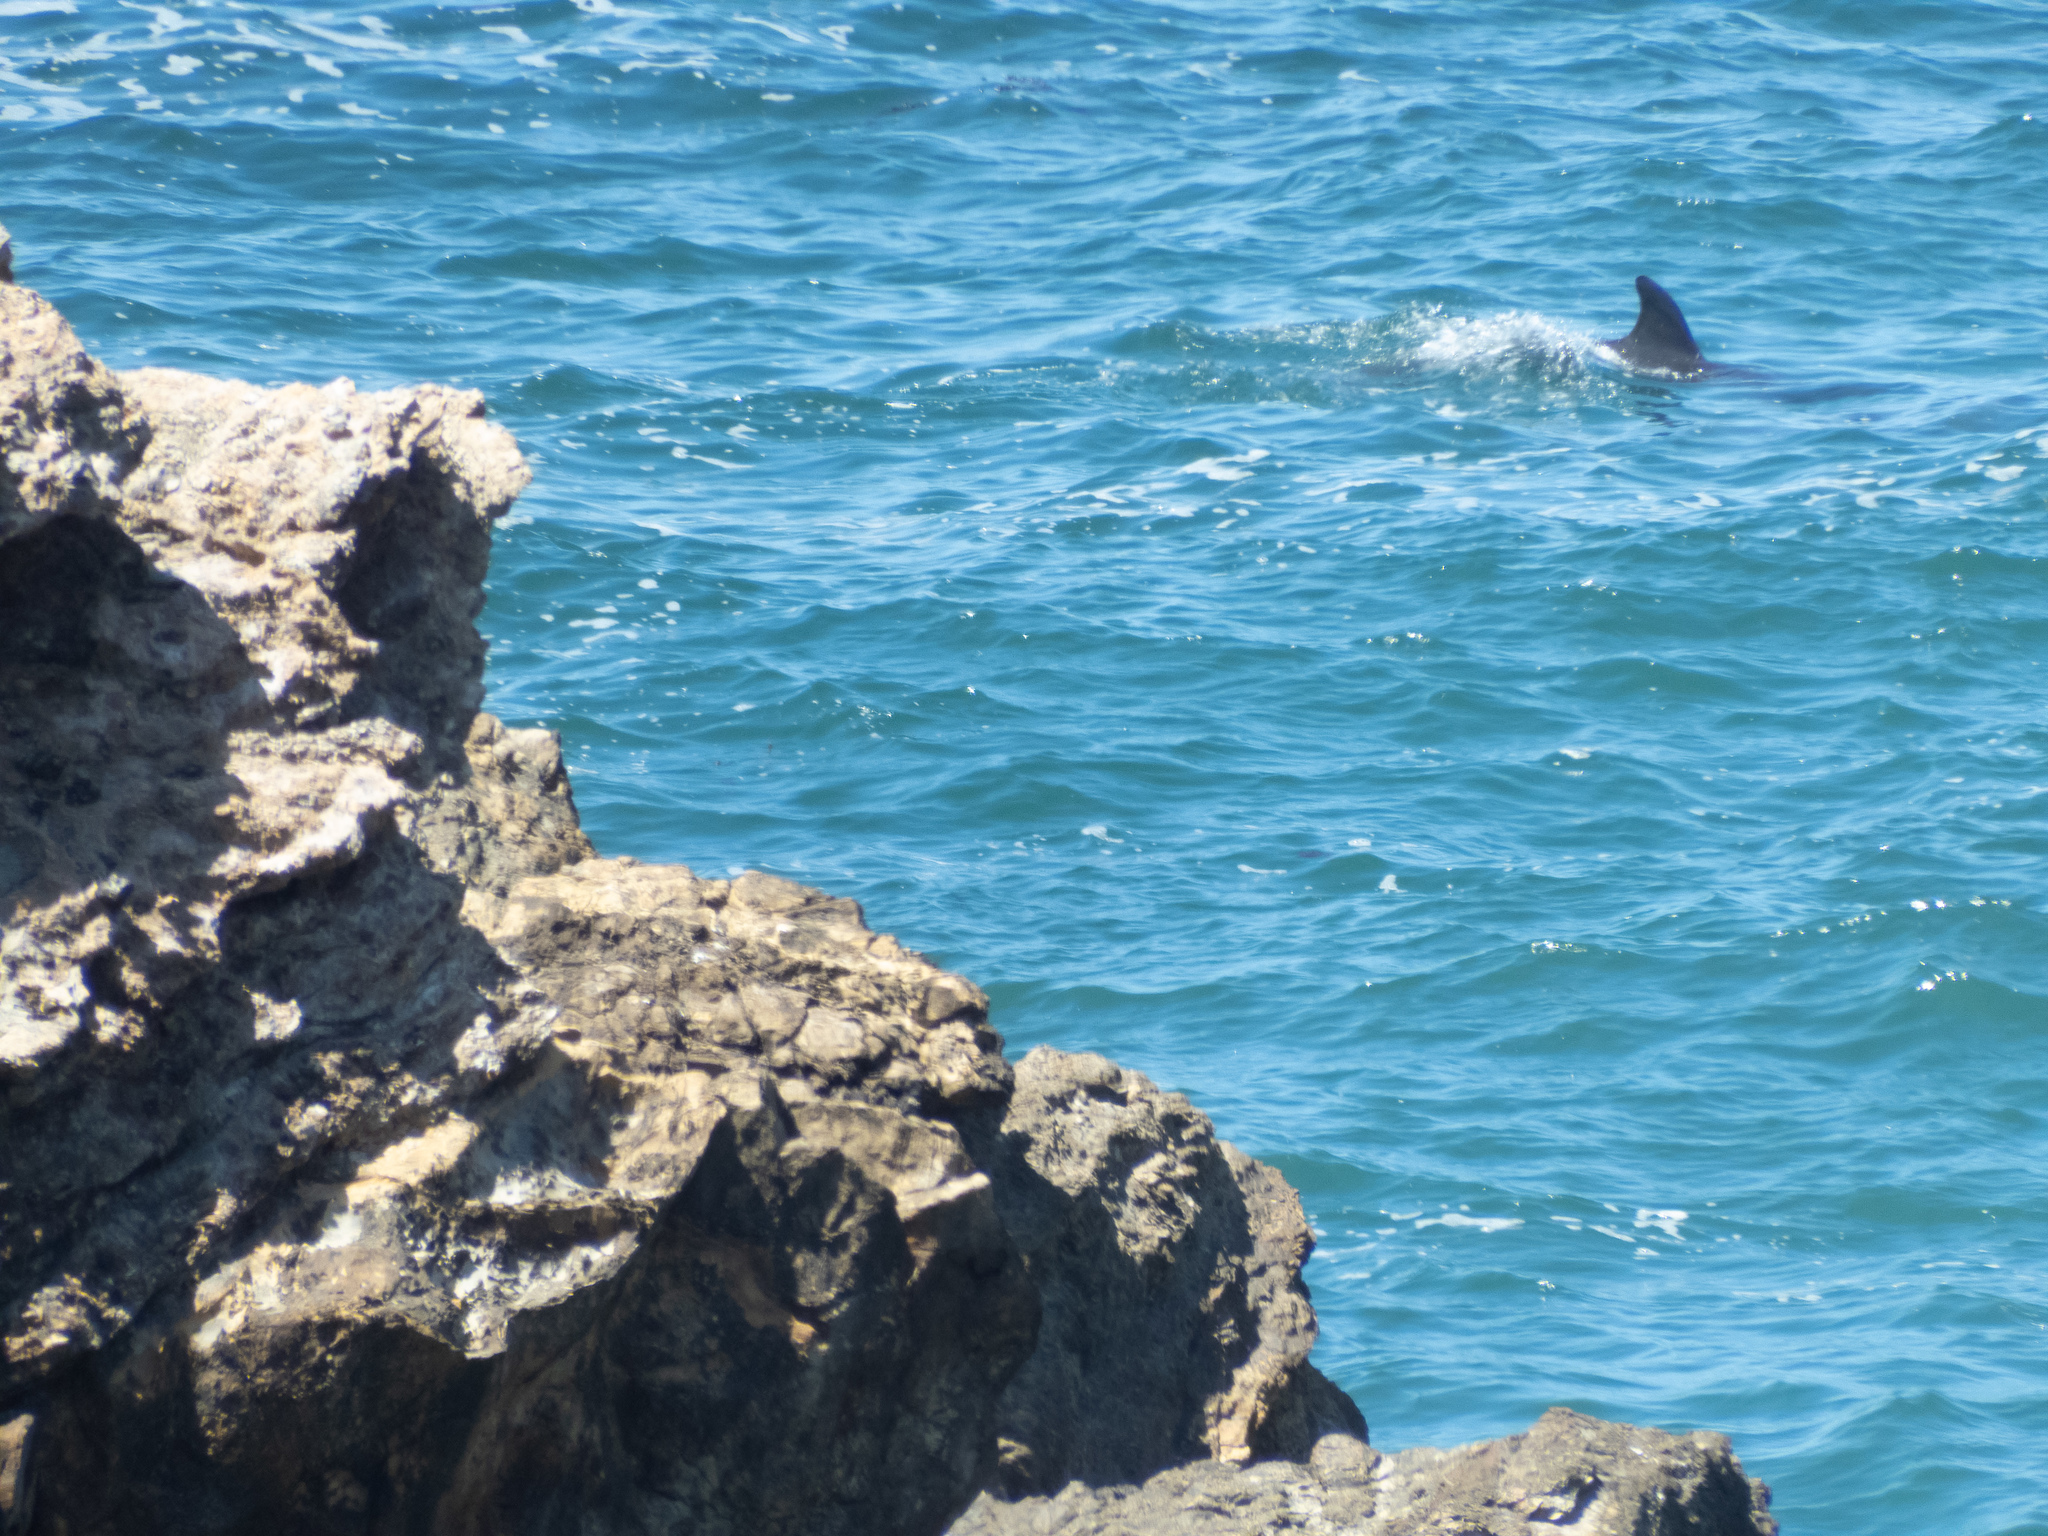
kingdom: Animalia
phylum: Chordata
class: Mammalia
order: Cetacea
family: Delphinidae
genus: Tursiops
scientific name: Tursiops truncatus
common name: Bottlenose dolphin
